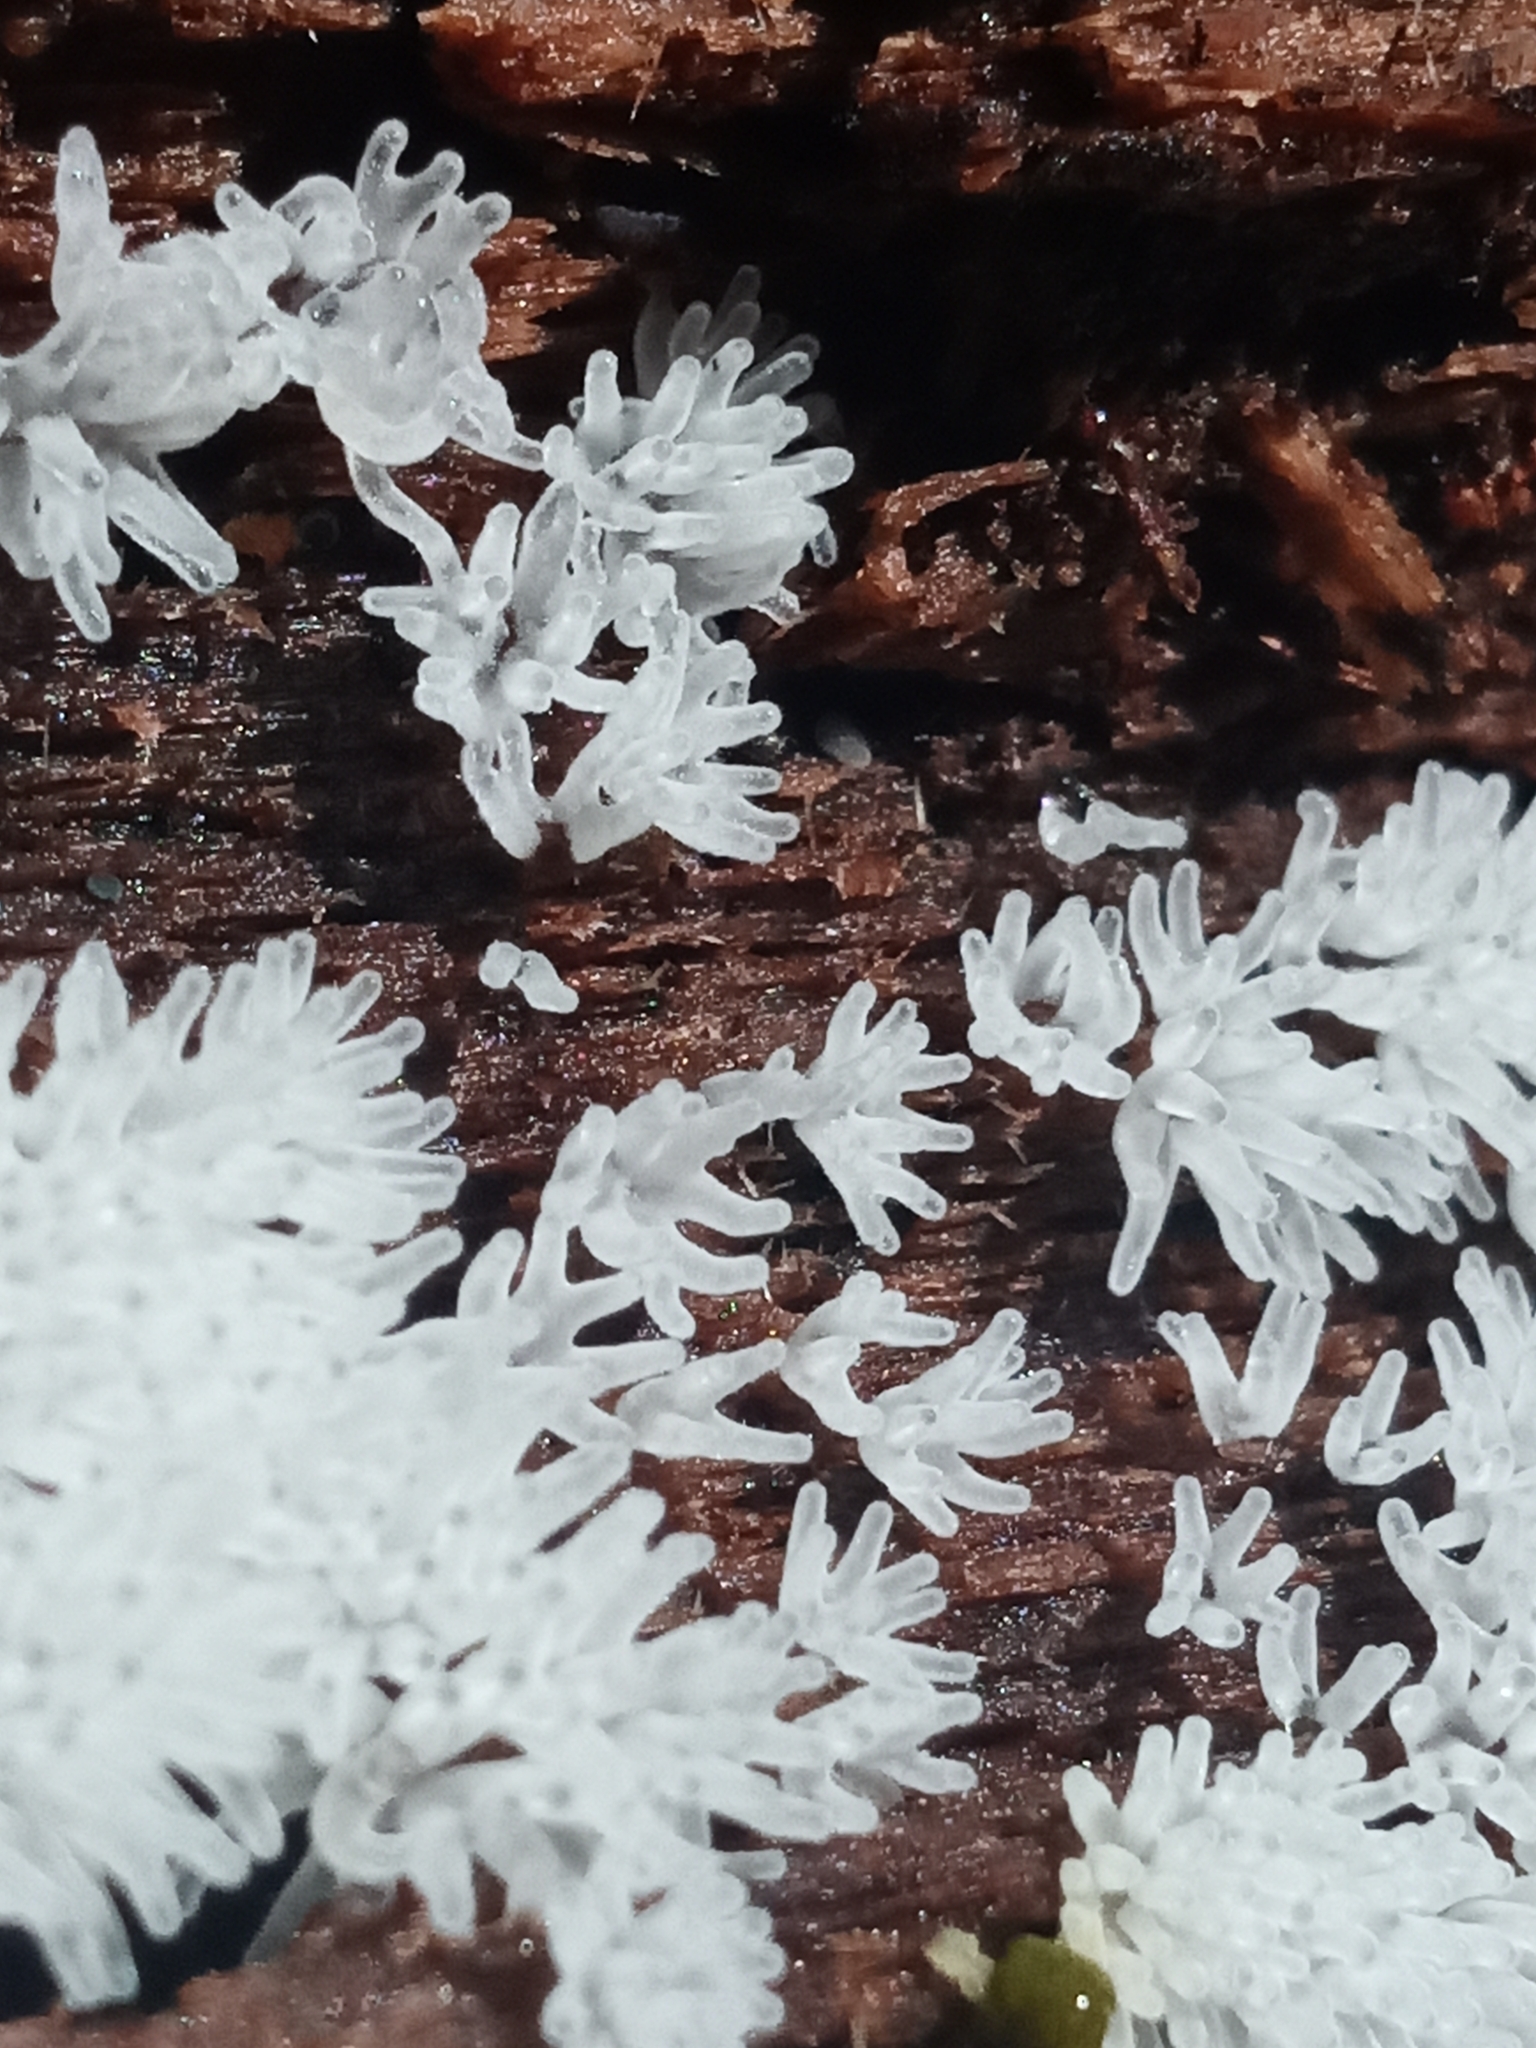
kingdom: Protozoa
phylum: Mycetozoa
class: Protosteliomycetes
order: Ceratiomyxales
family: Ceratiomyxaceae
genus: Ceratiomyxa
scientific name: Ceratiomyxa fruticulosa
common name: Honeycomb coral slime mold
